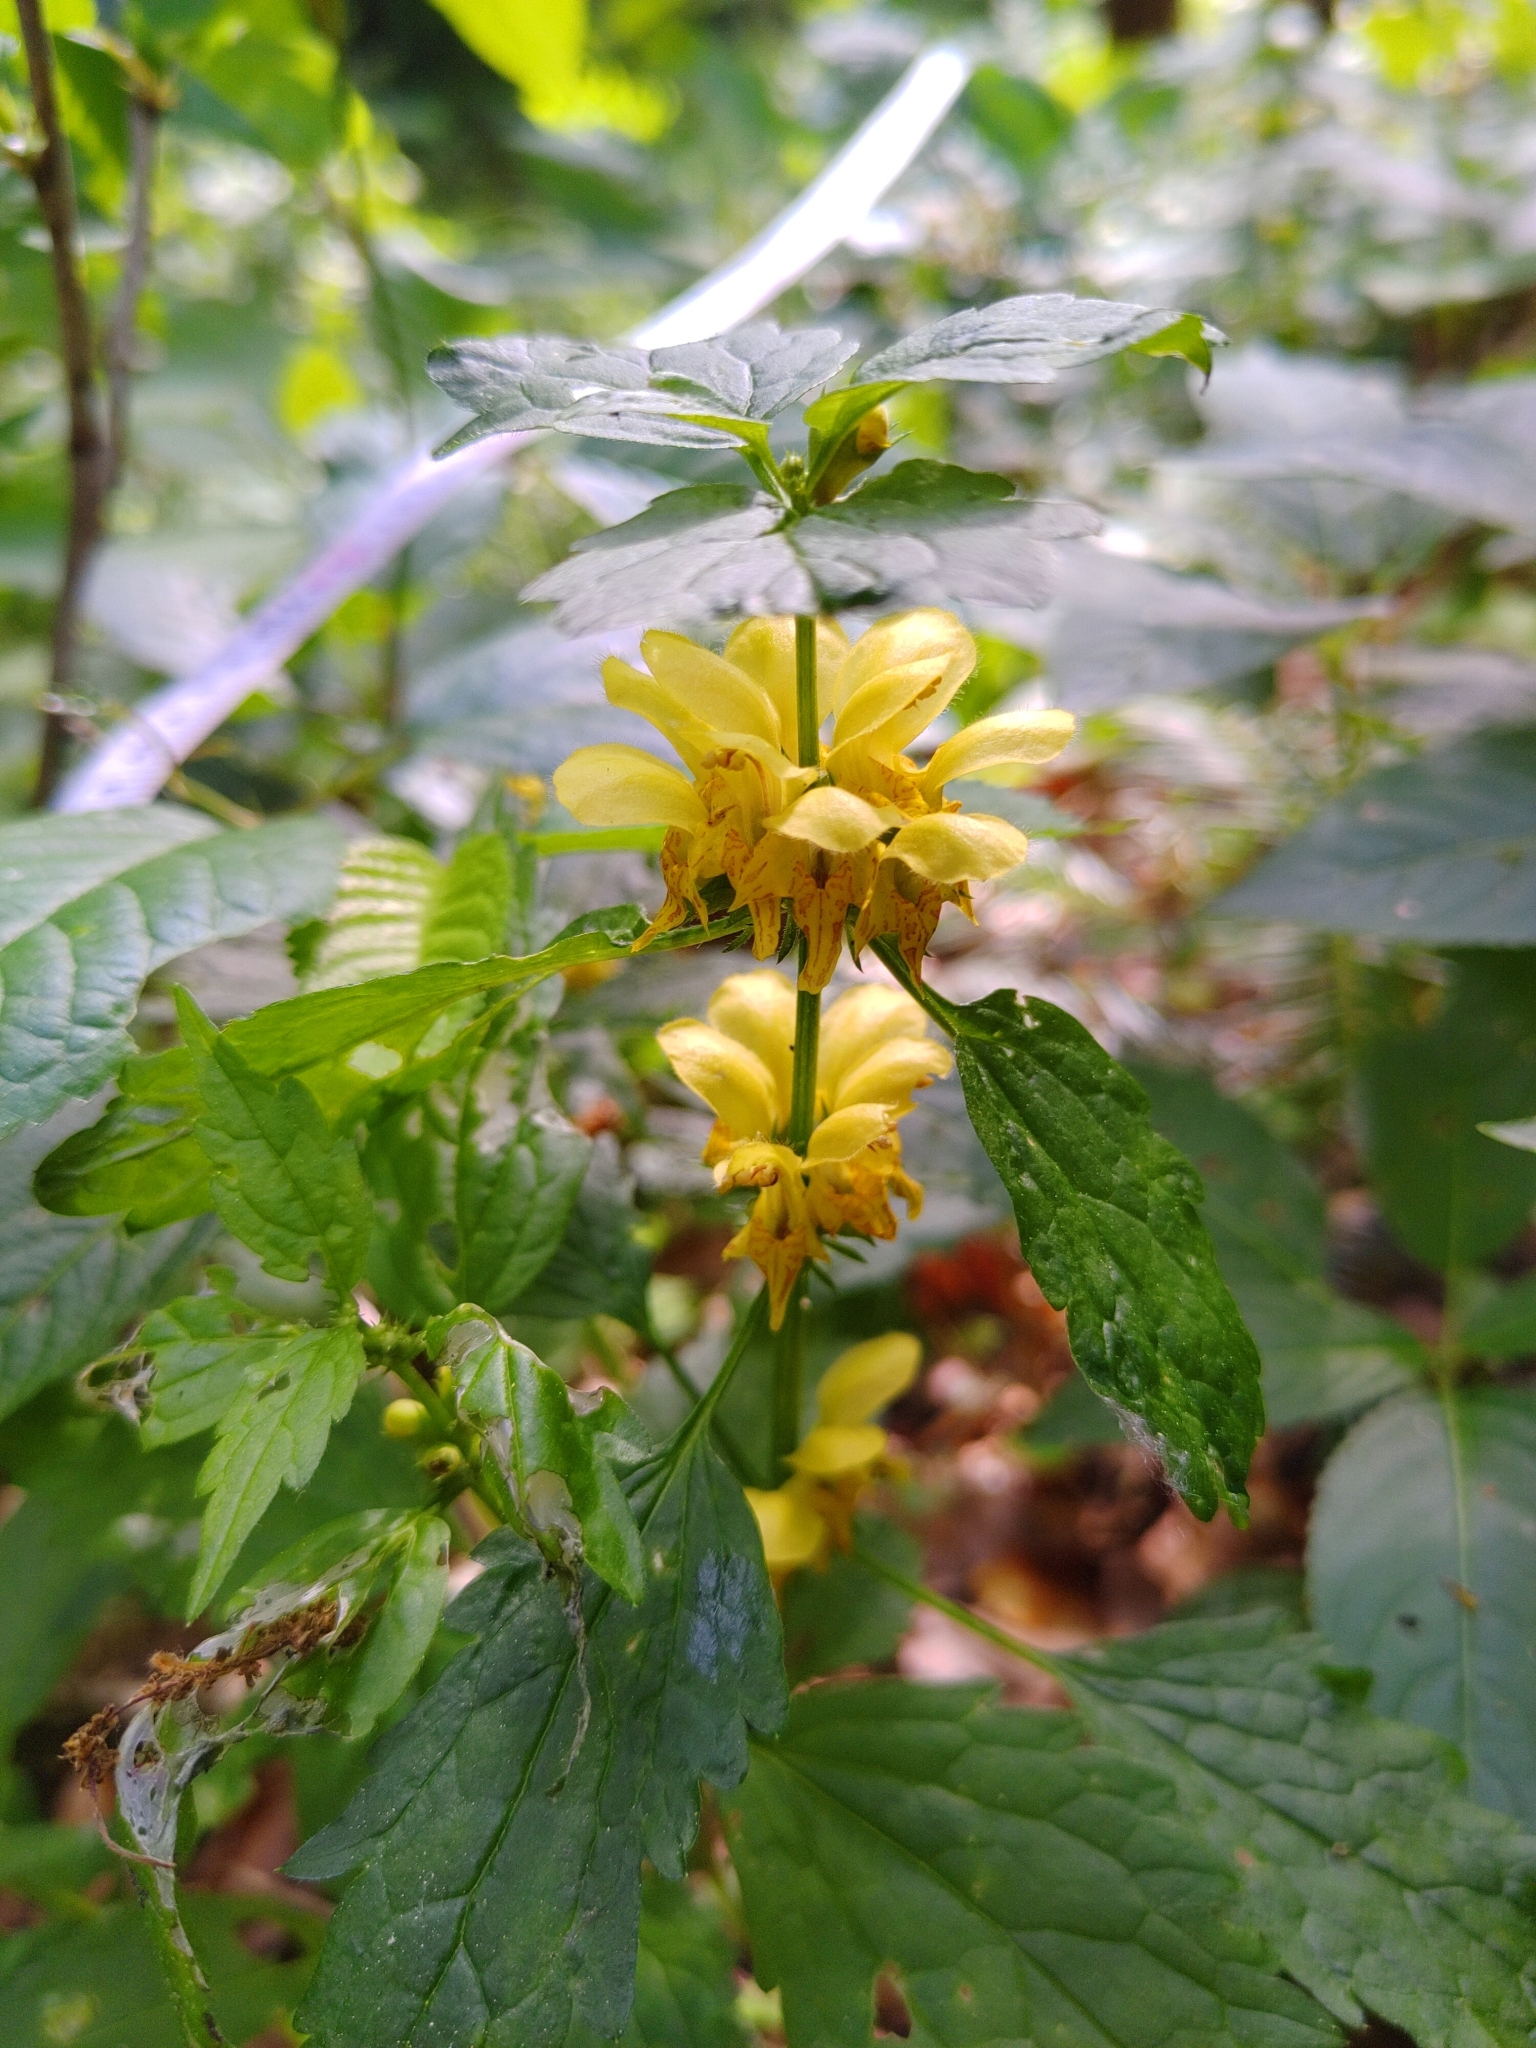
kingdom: Plantae
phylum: Tracheophyta
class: Magnoliopsida
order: Lamiales
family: Lamiaceae
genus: Lamium
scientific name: Lamium galeobdolon
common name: Yellow archangel
